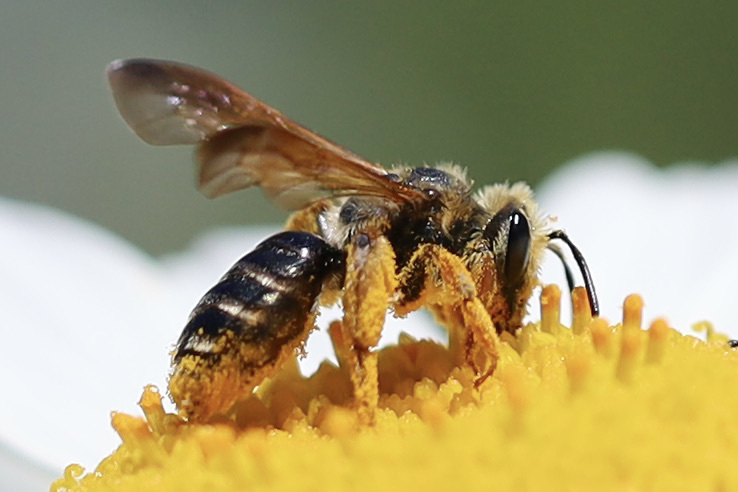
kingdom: Animalia
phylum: Arthropoda
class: Insecta
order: Hymenoptera
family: Andrenidae
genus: Andrena
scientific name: Andrena prunorum
